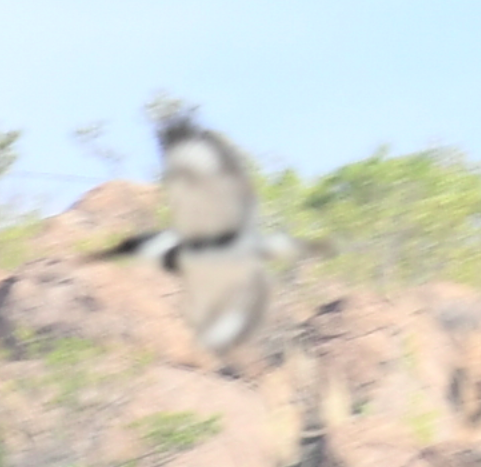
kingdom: Animalia
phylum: Chordata
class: Aves
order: Coraciiformes
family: Alcedinidae
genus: Megaceryle
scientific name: Megaceryle alcyon
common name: Belted kingfisher
